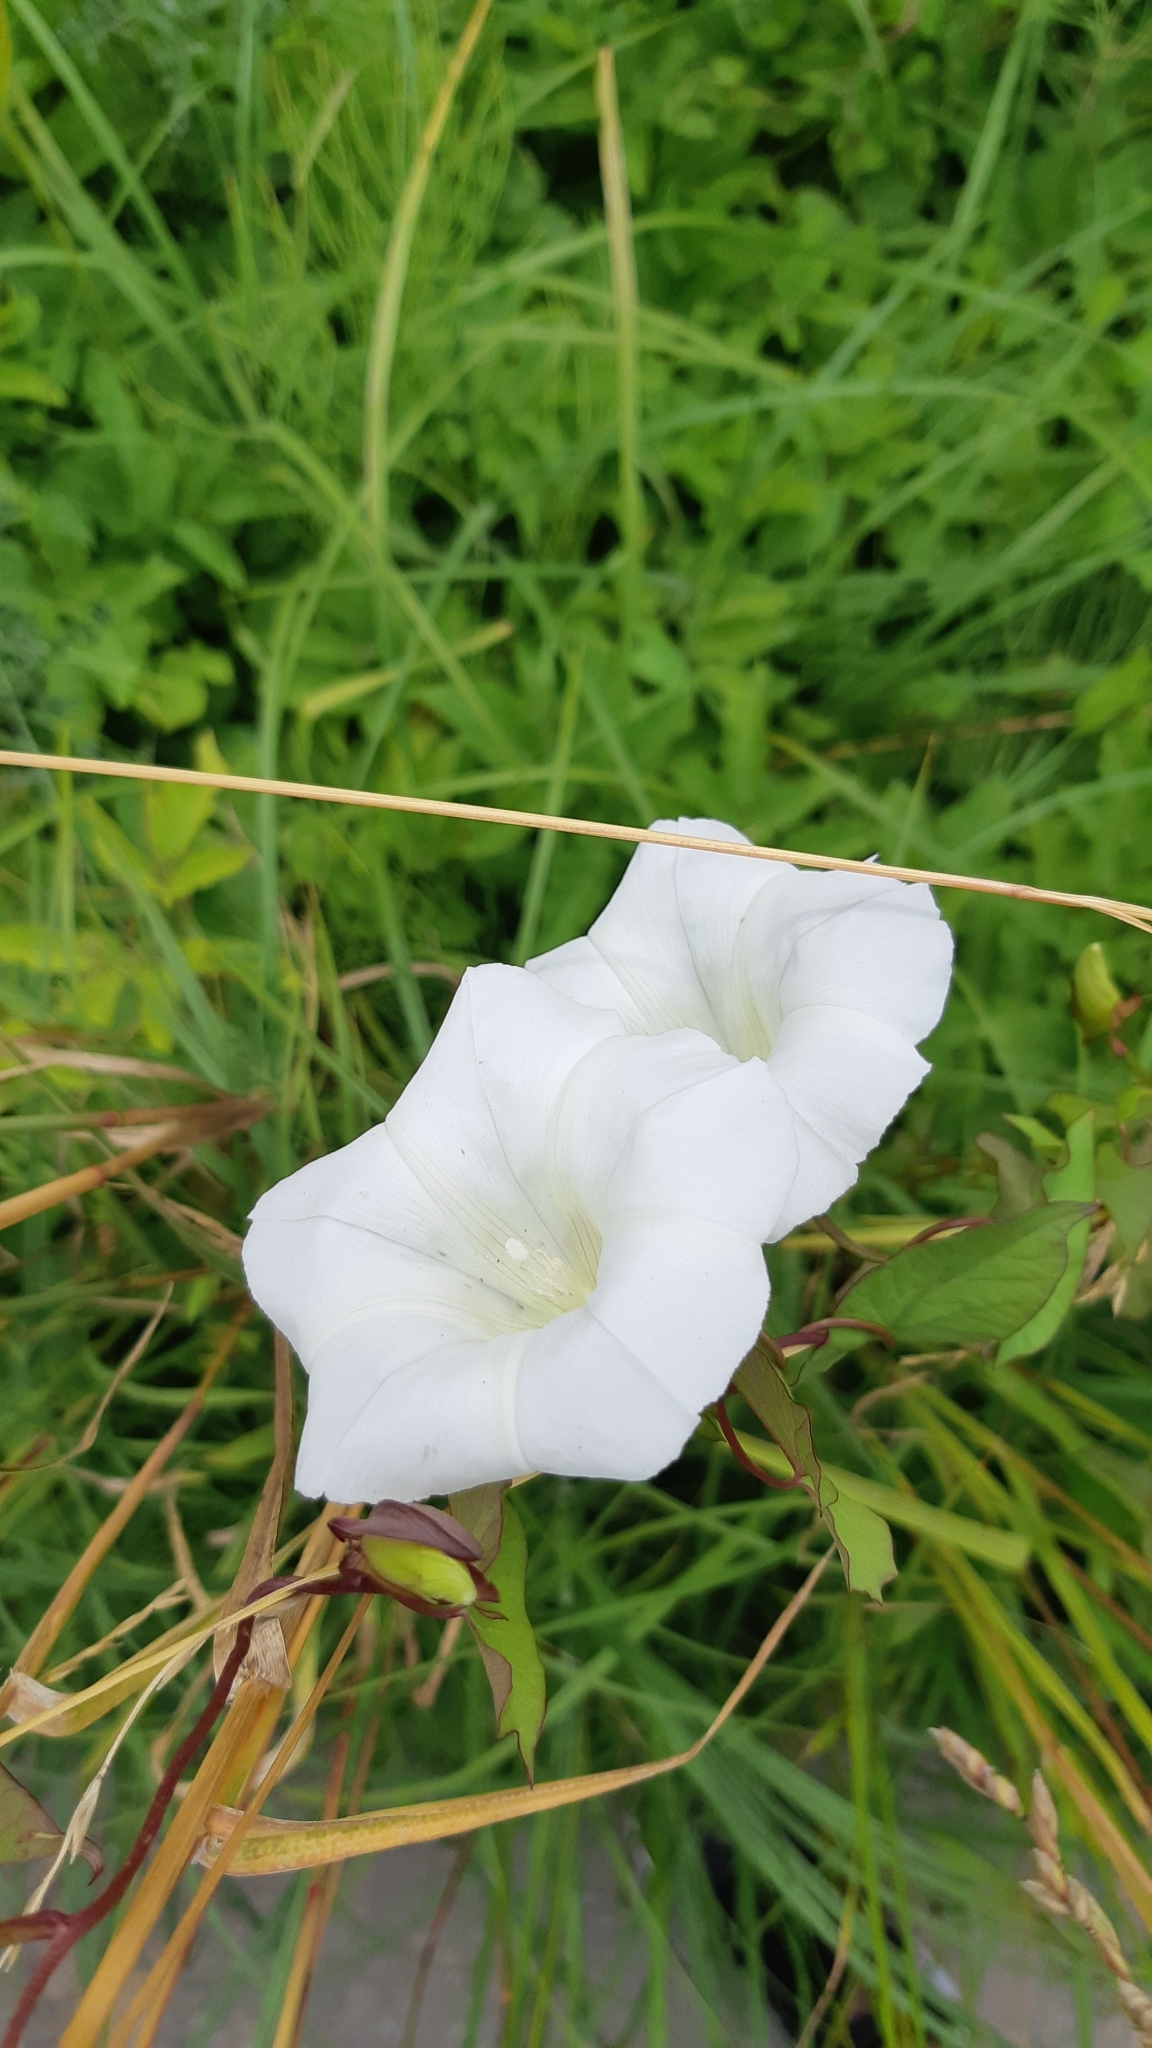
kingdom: Plantae
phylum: Tracheophyta
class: Magnoliopsida
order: Solanales
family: Convolvulaceae
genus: Calystegia
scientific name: Calystegia sepium
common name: Hedge bindweed
